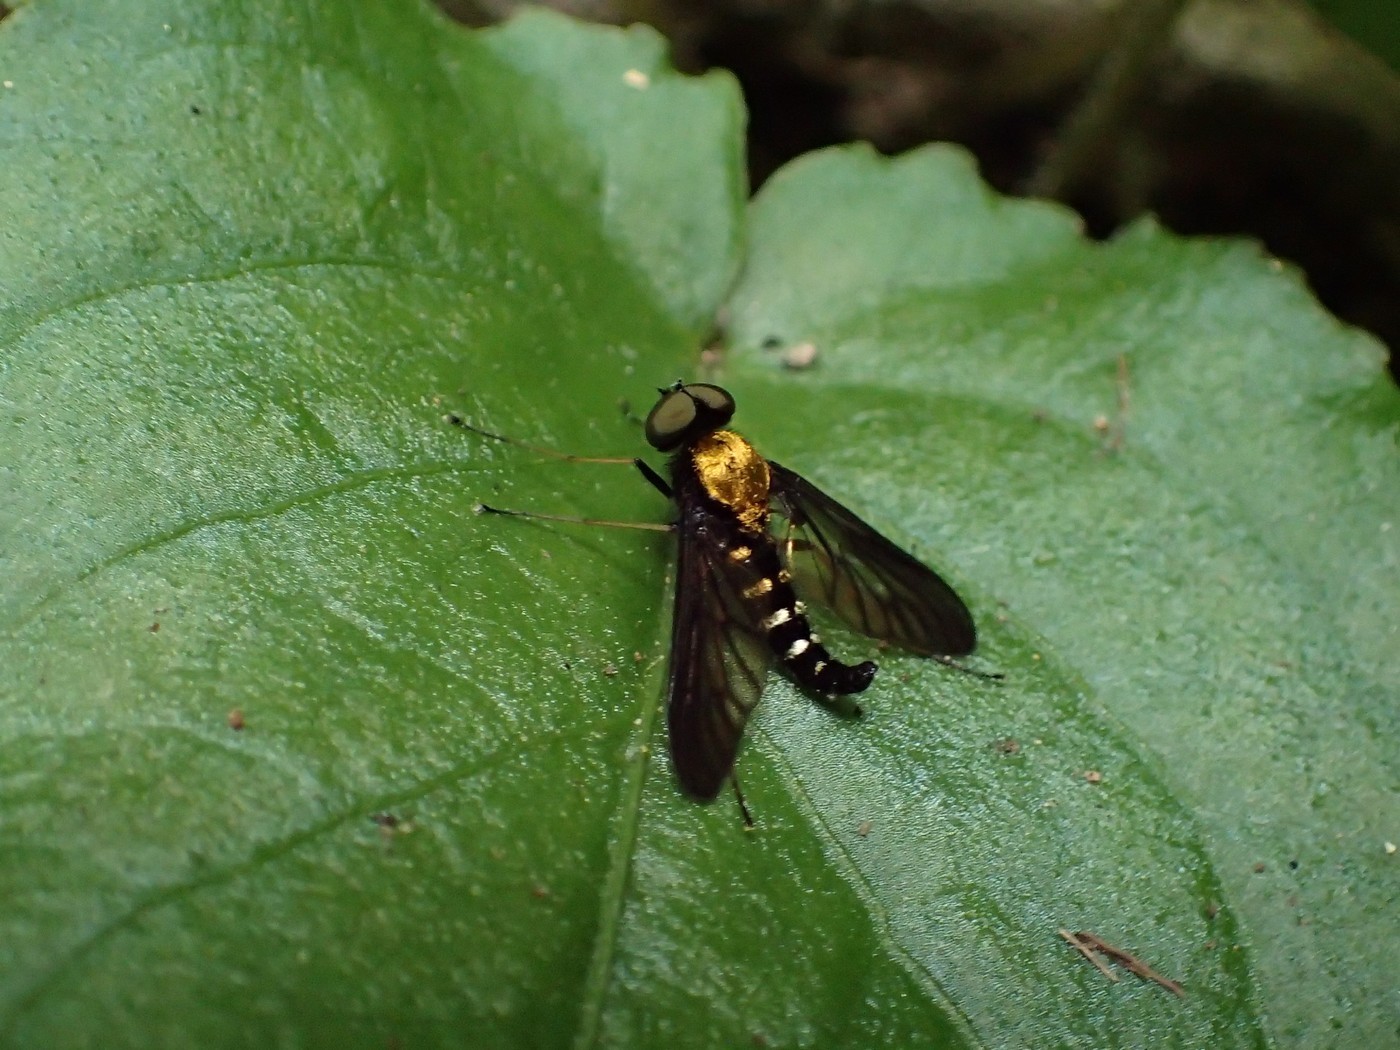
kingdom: Animalia
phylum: Arthropoda
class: Insecta
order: Diptera
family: Rhagionidae
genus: Chrysopilus
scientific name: Chrysopilus thoracicus
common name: Golden-backed snipe fly
